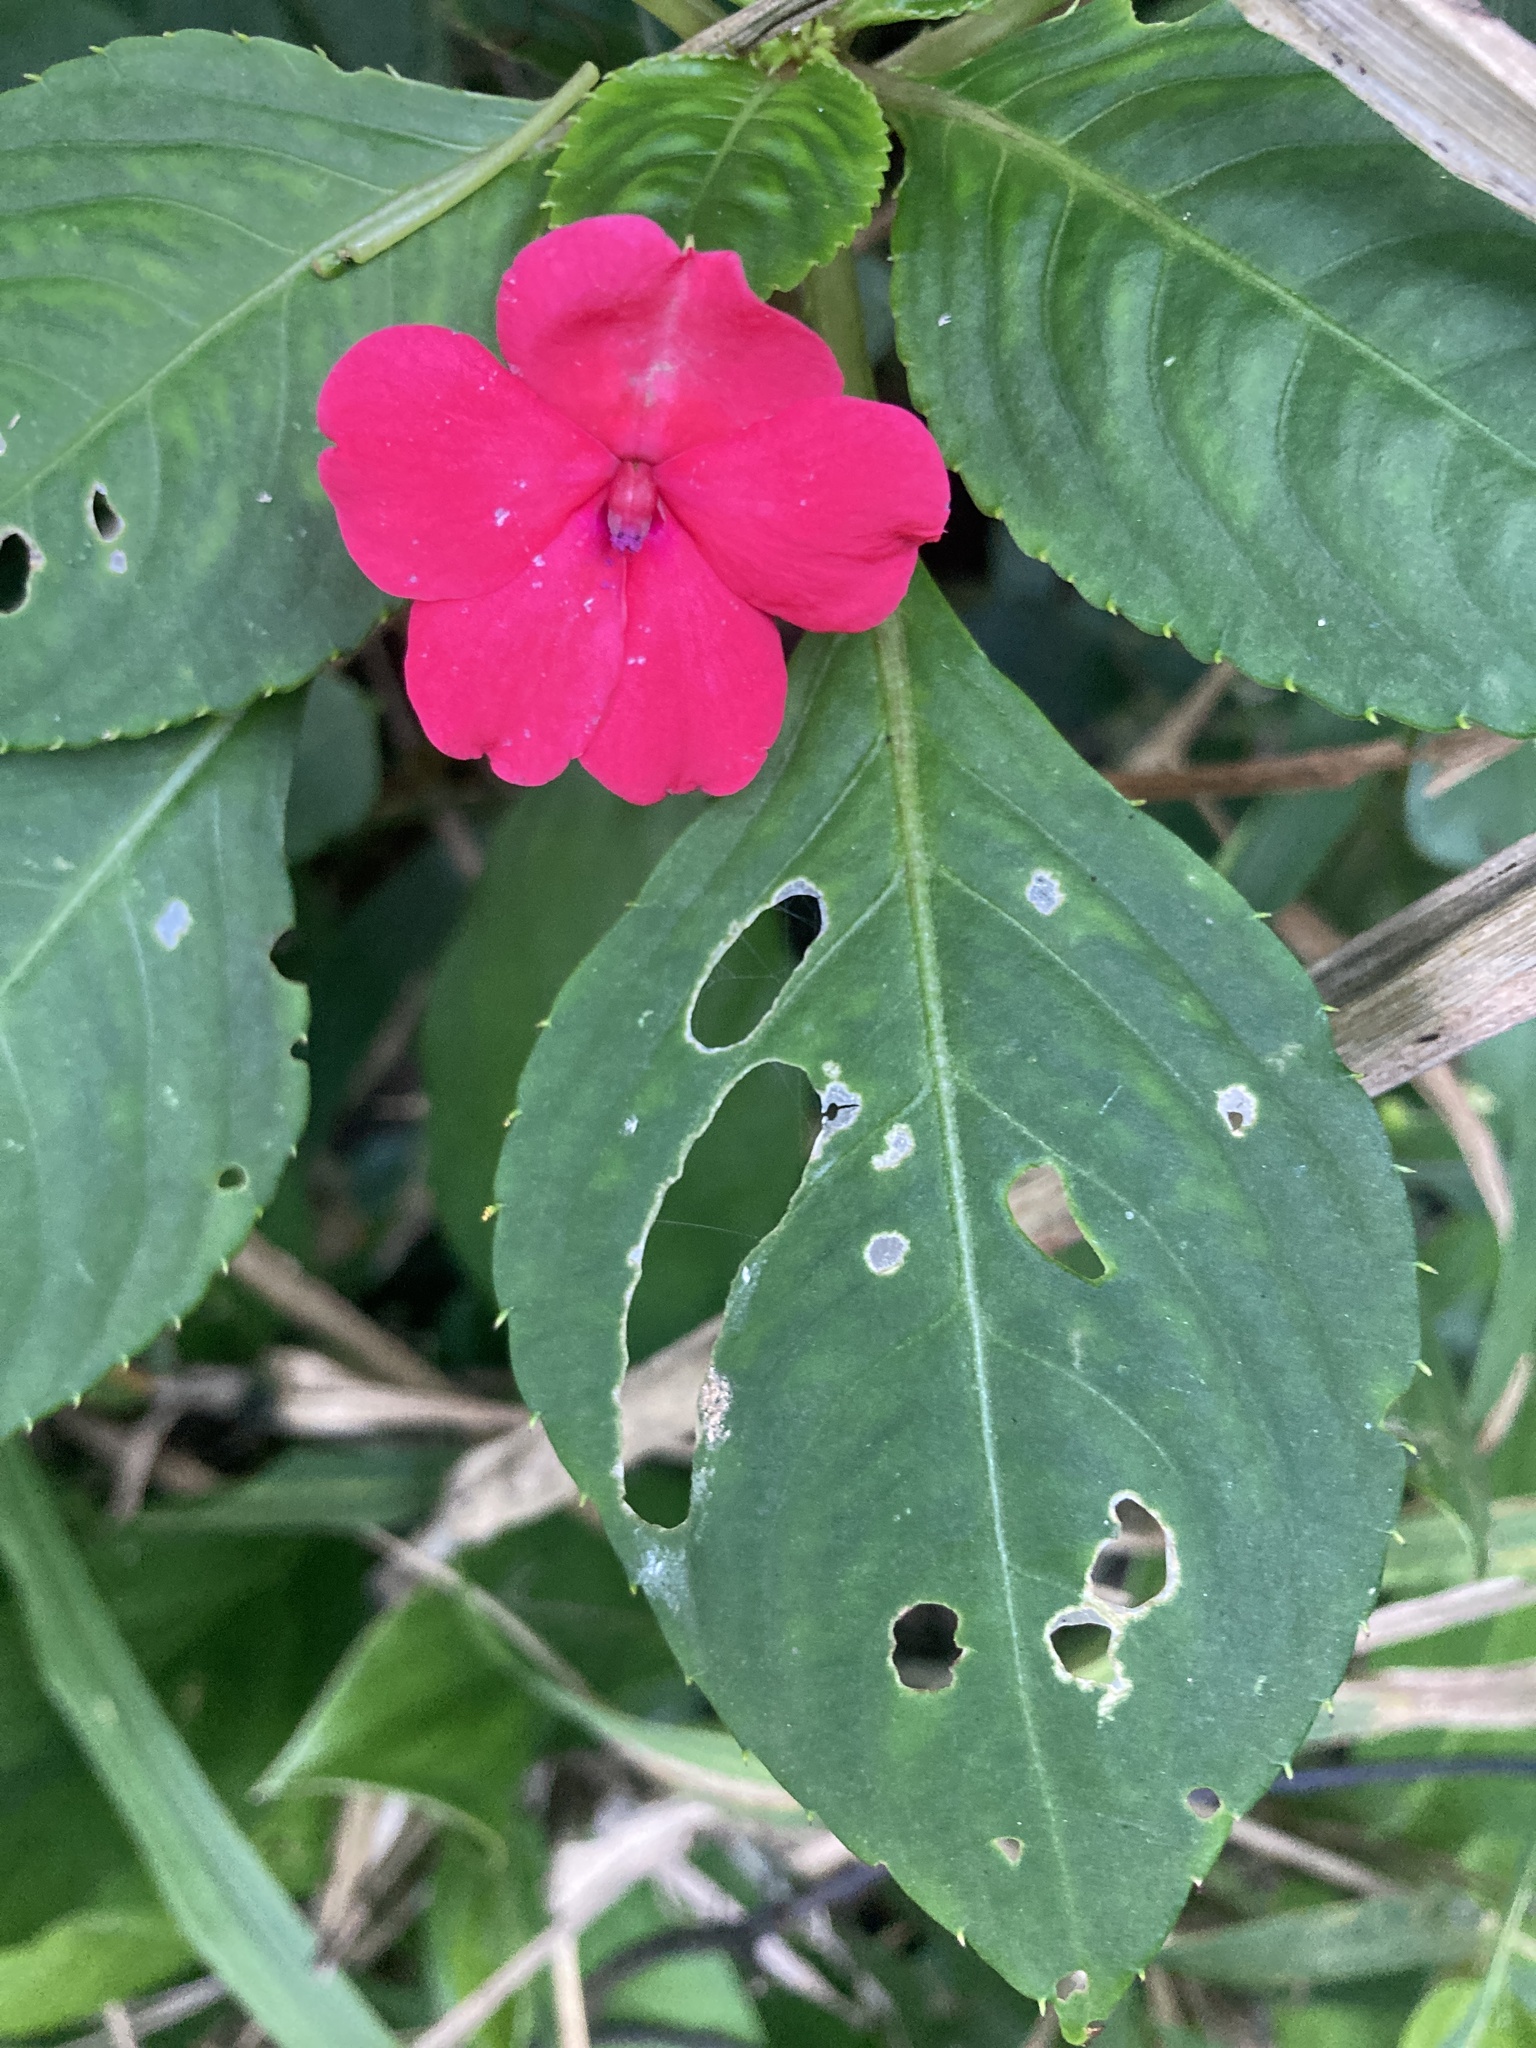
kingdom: Plantae
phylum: Tracheophyta
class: Magnoliopsida
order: Ericales
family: Balsaminaceae
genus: Impatiens
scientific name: Impatiens walleriana
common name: Buzzy lizzy
